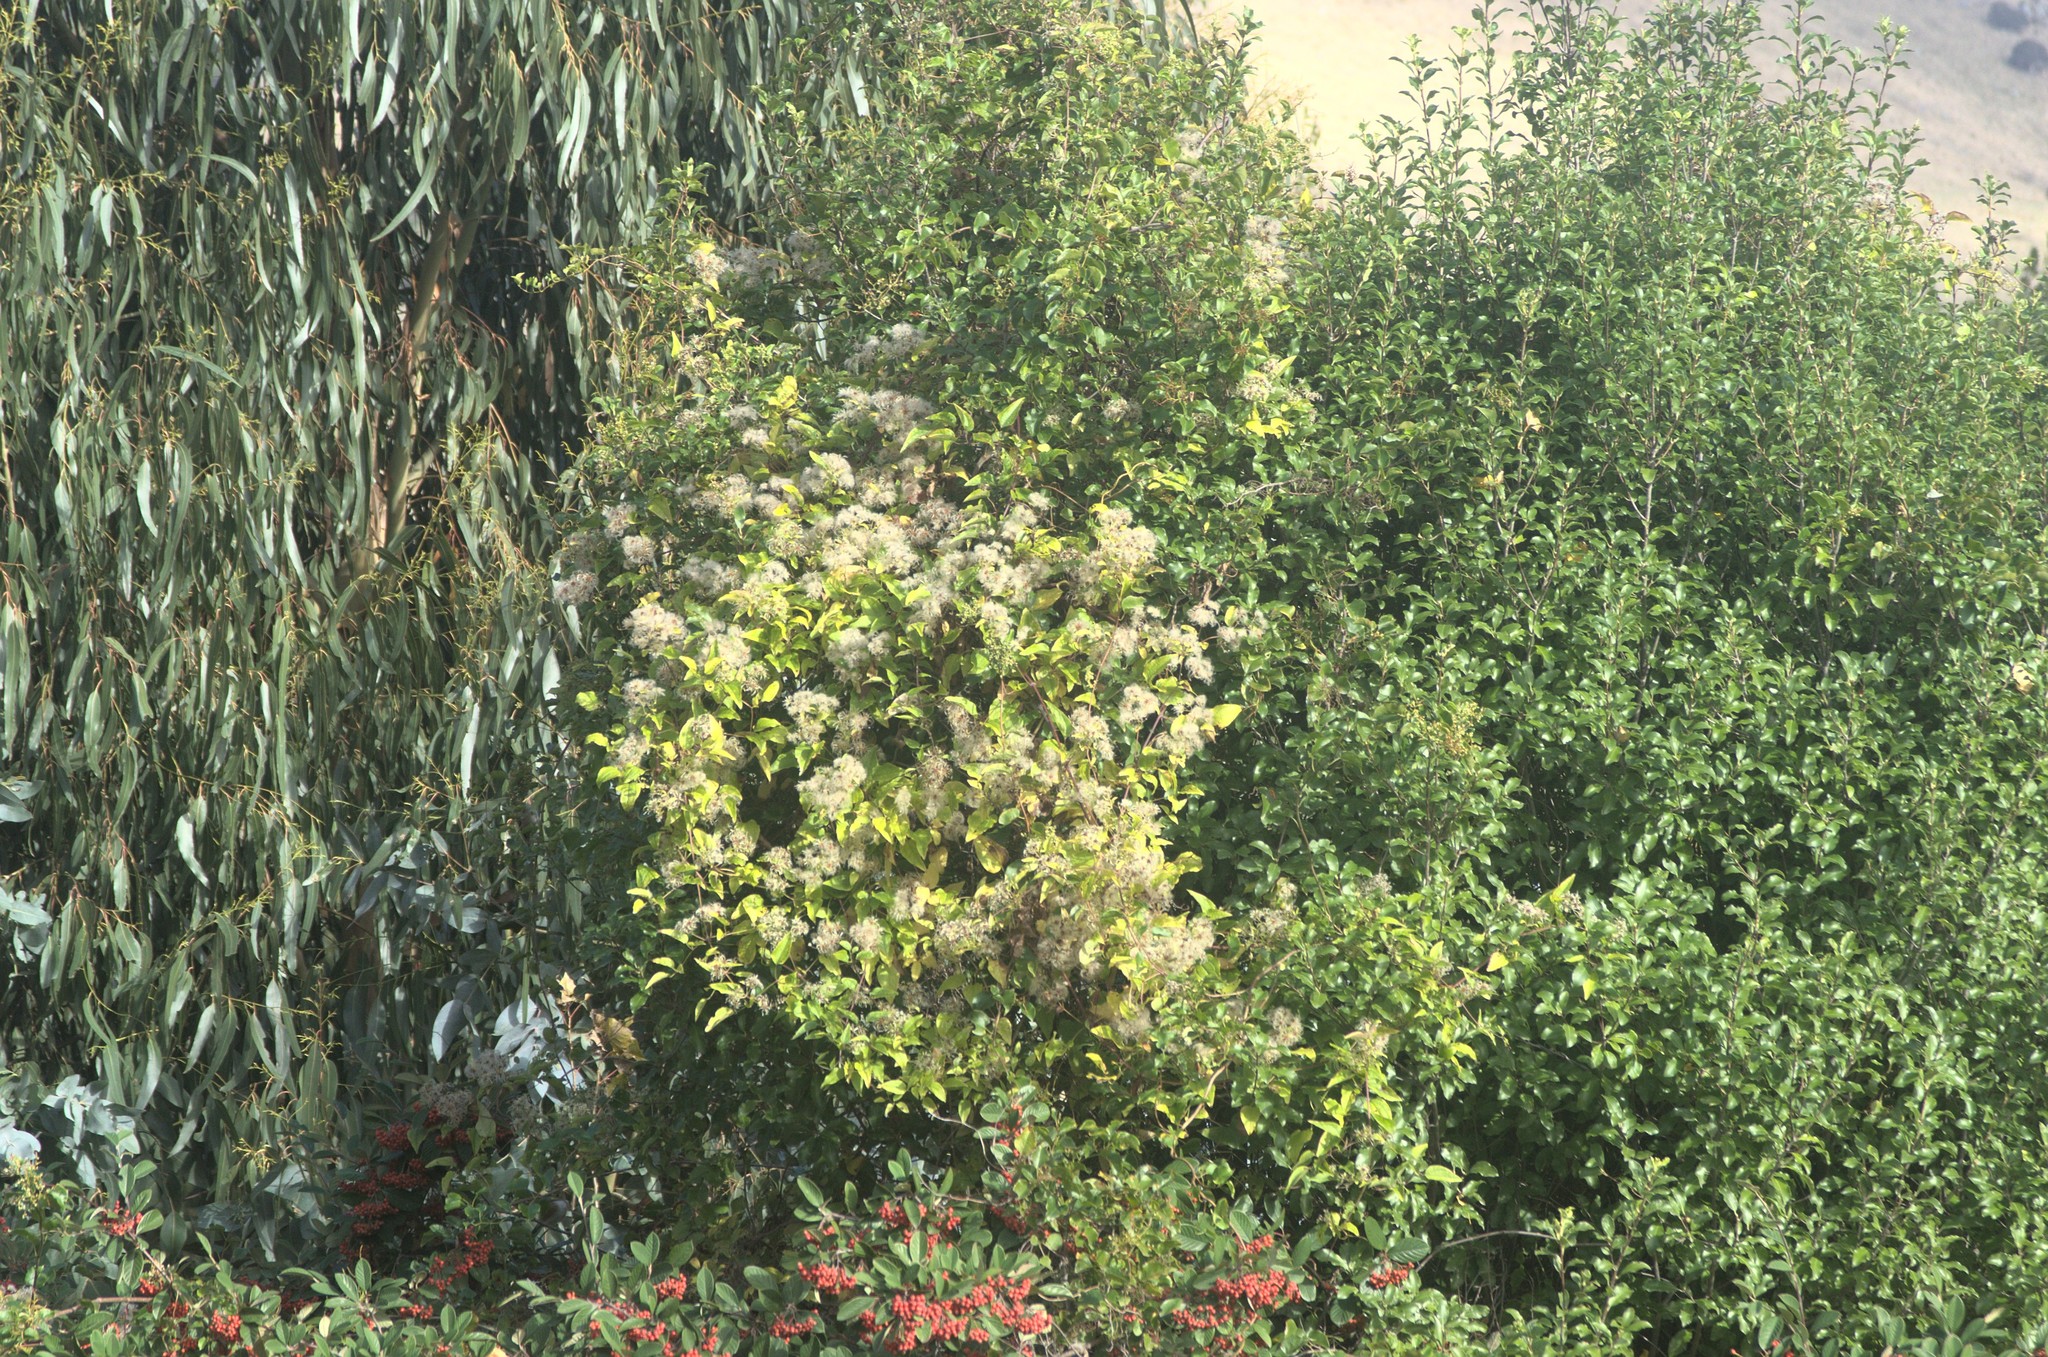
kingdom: Plantae
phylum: Tracheophyta
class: Magnoliopsida
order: Ranunculales
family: Ranunculaceae
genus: Clematis
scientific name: Clematis vitalba
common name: Evergreen clematis
